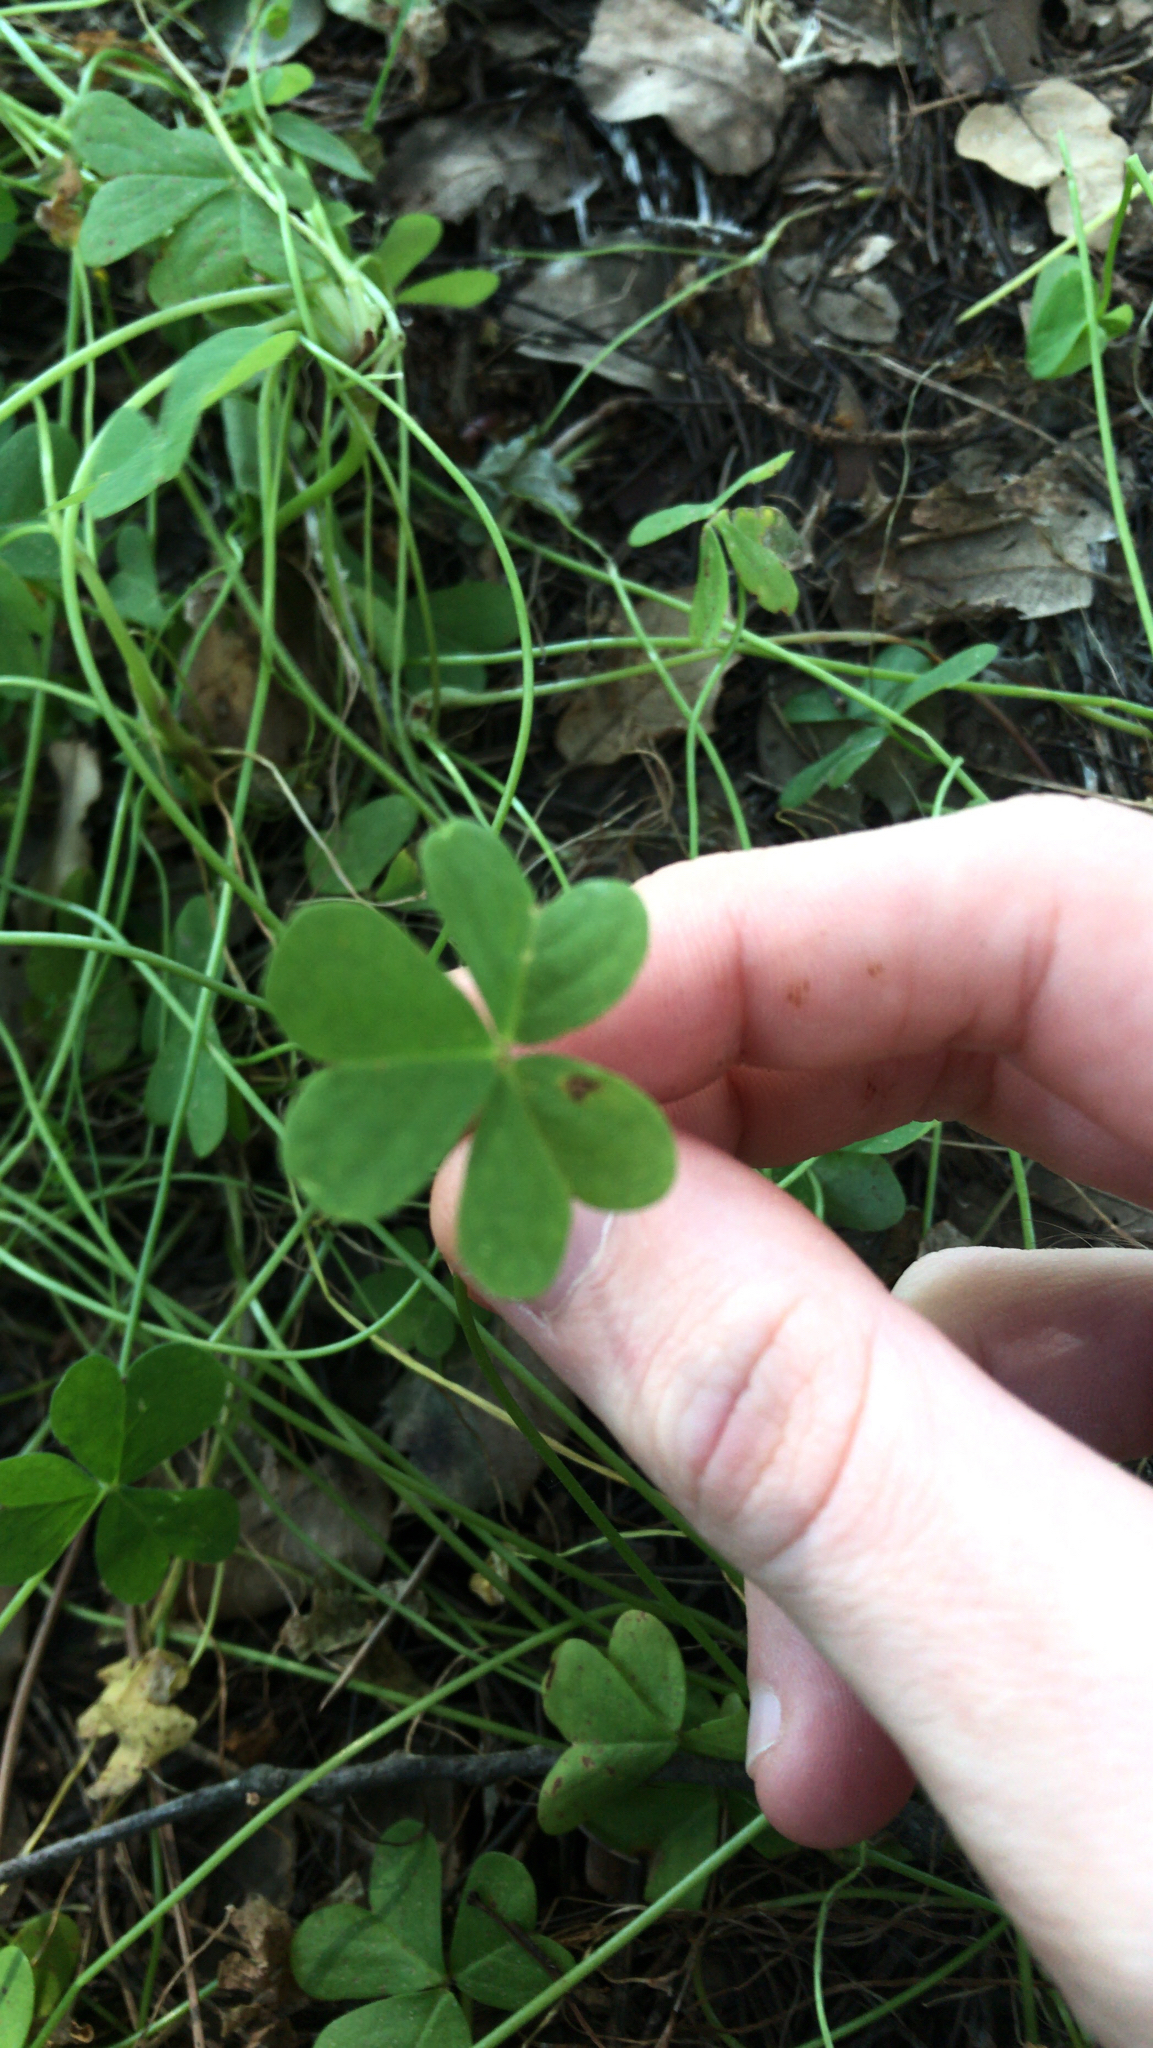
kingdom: Plantae
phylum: Tracheophyta
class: Magnoliopsida
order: Oxalidales
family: Oxalidaceae
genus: Oxalis
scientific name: Oxalis pes-caprae
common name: Bermuda-buttercup
